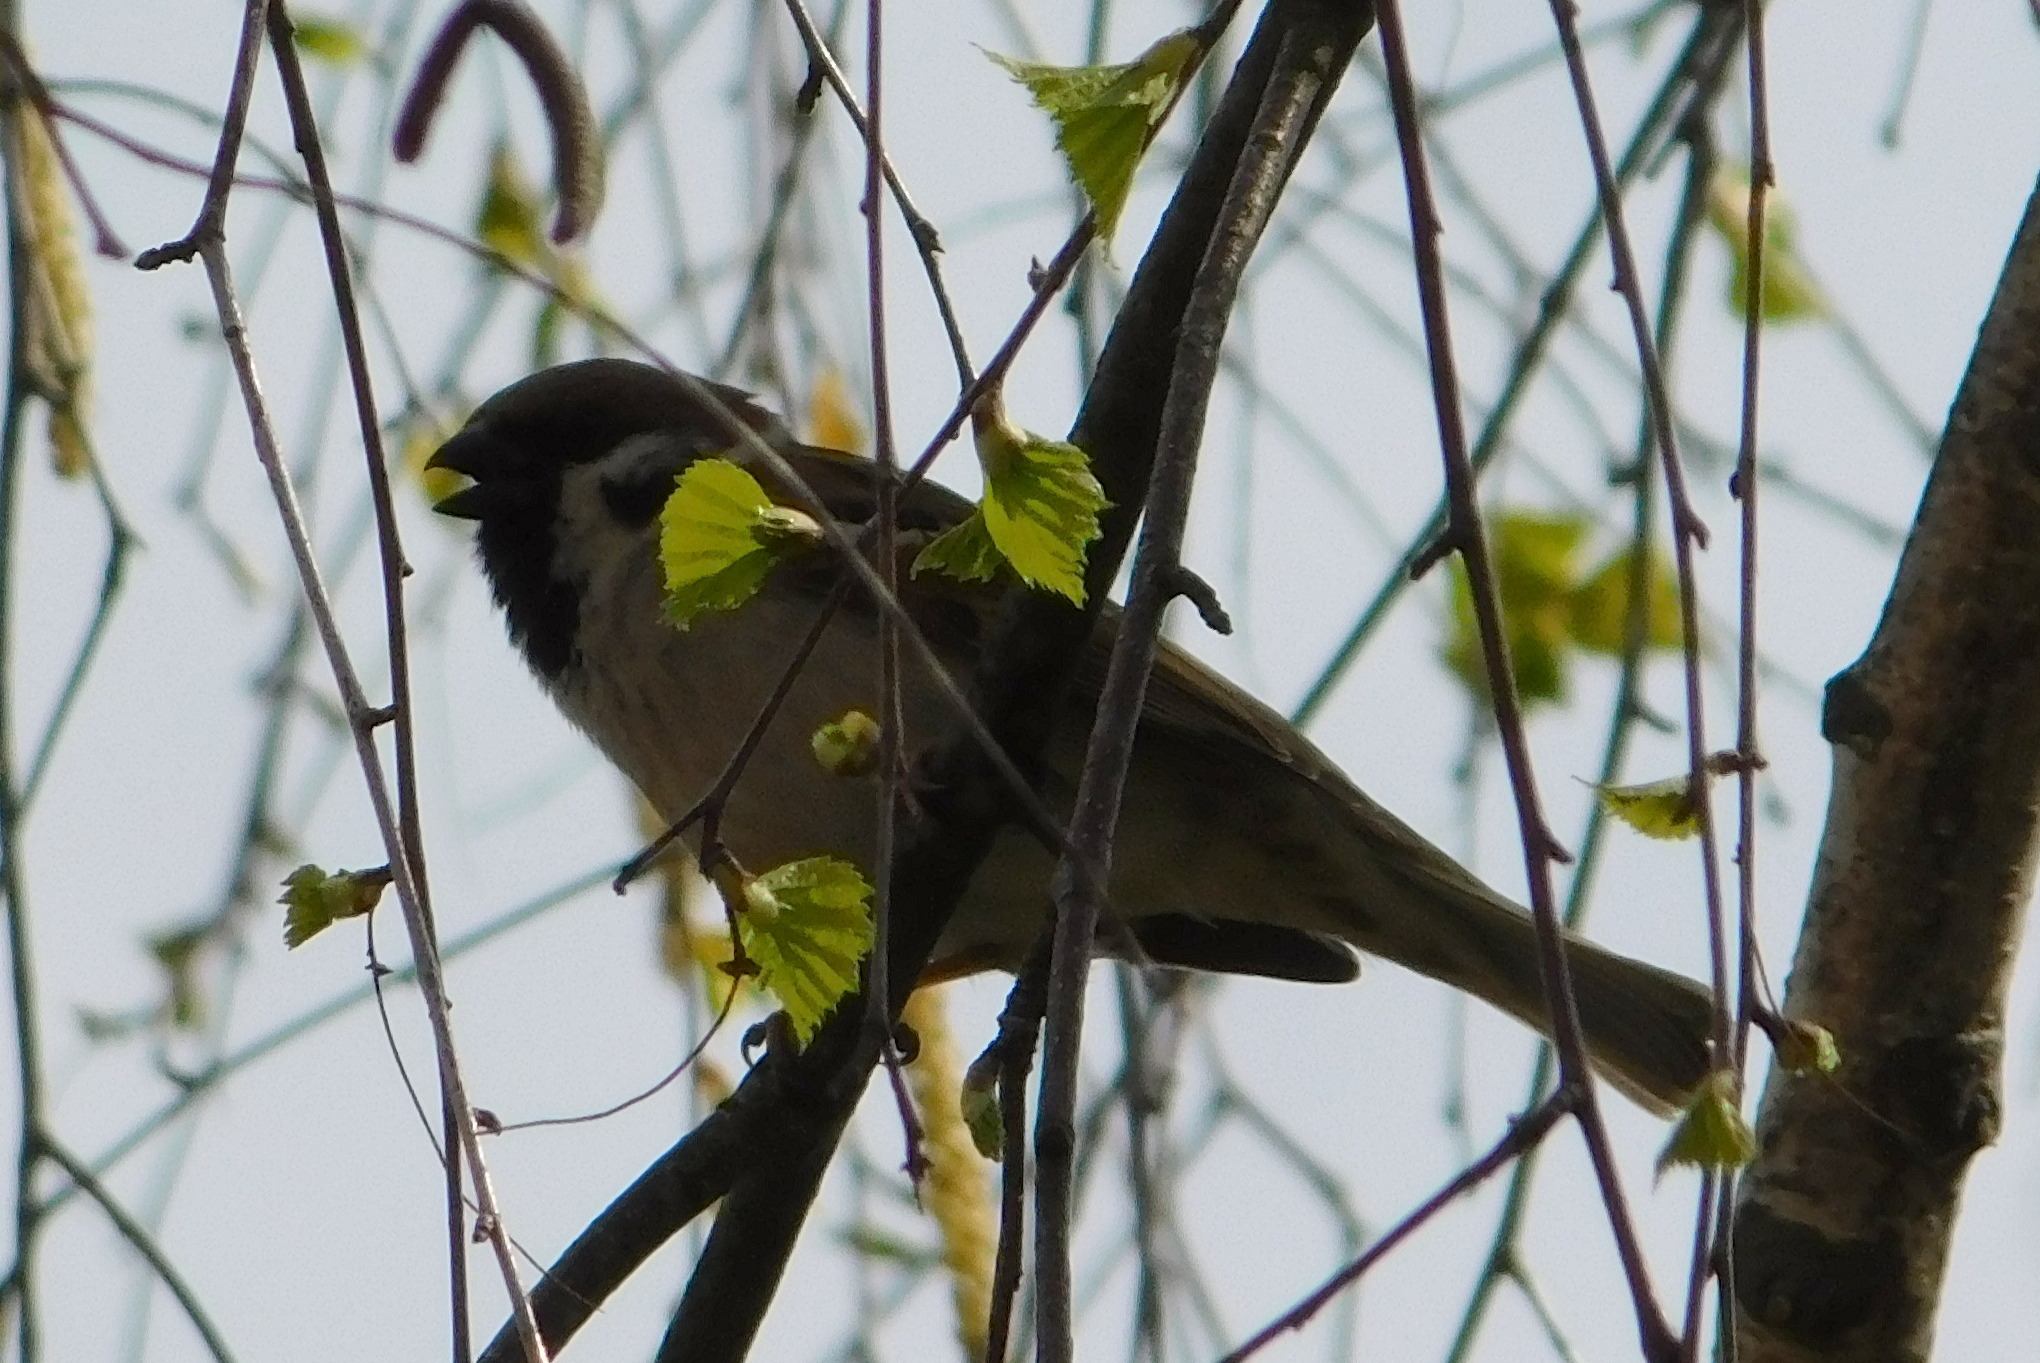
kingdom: Animalia
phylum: Chordata
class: Aves
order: Passeriformes
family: Passeridae
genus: Passer
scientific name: Passer montanus
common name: Eurasian tree sparrow
